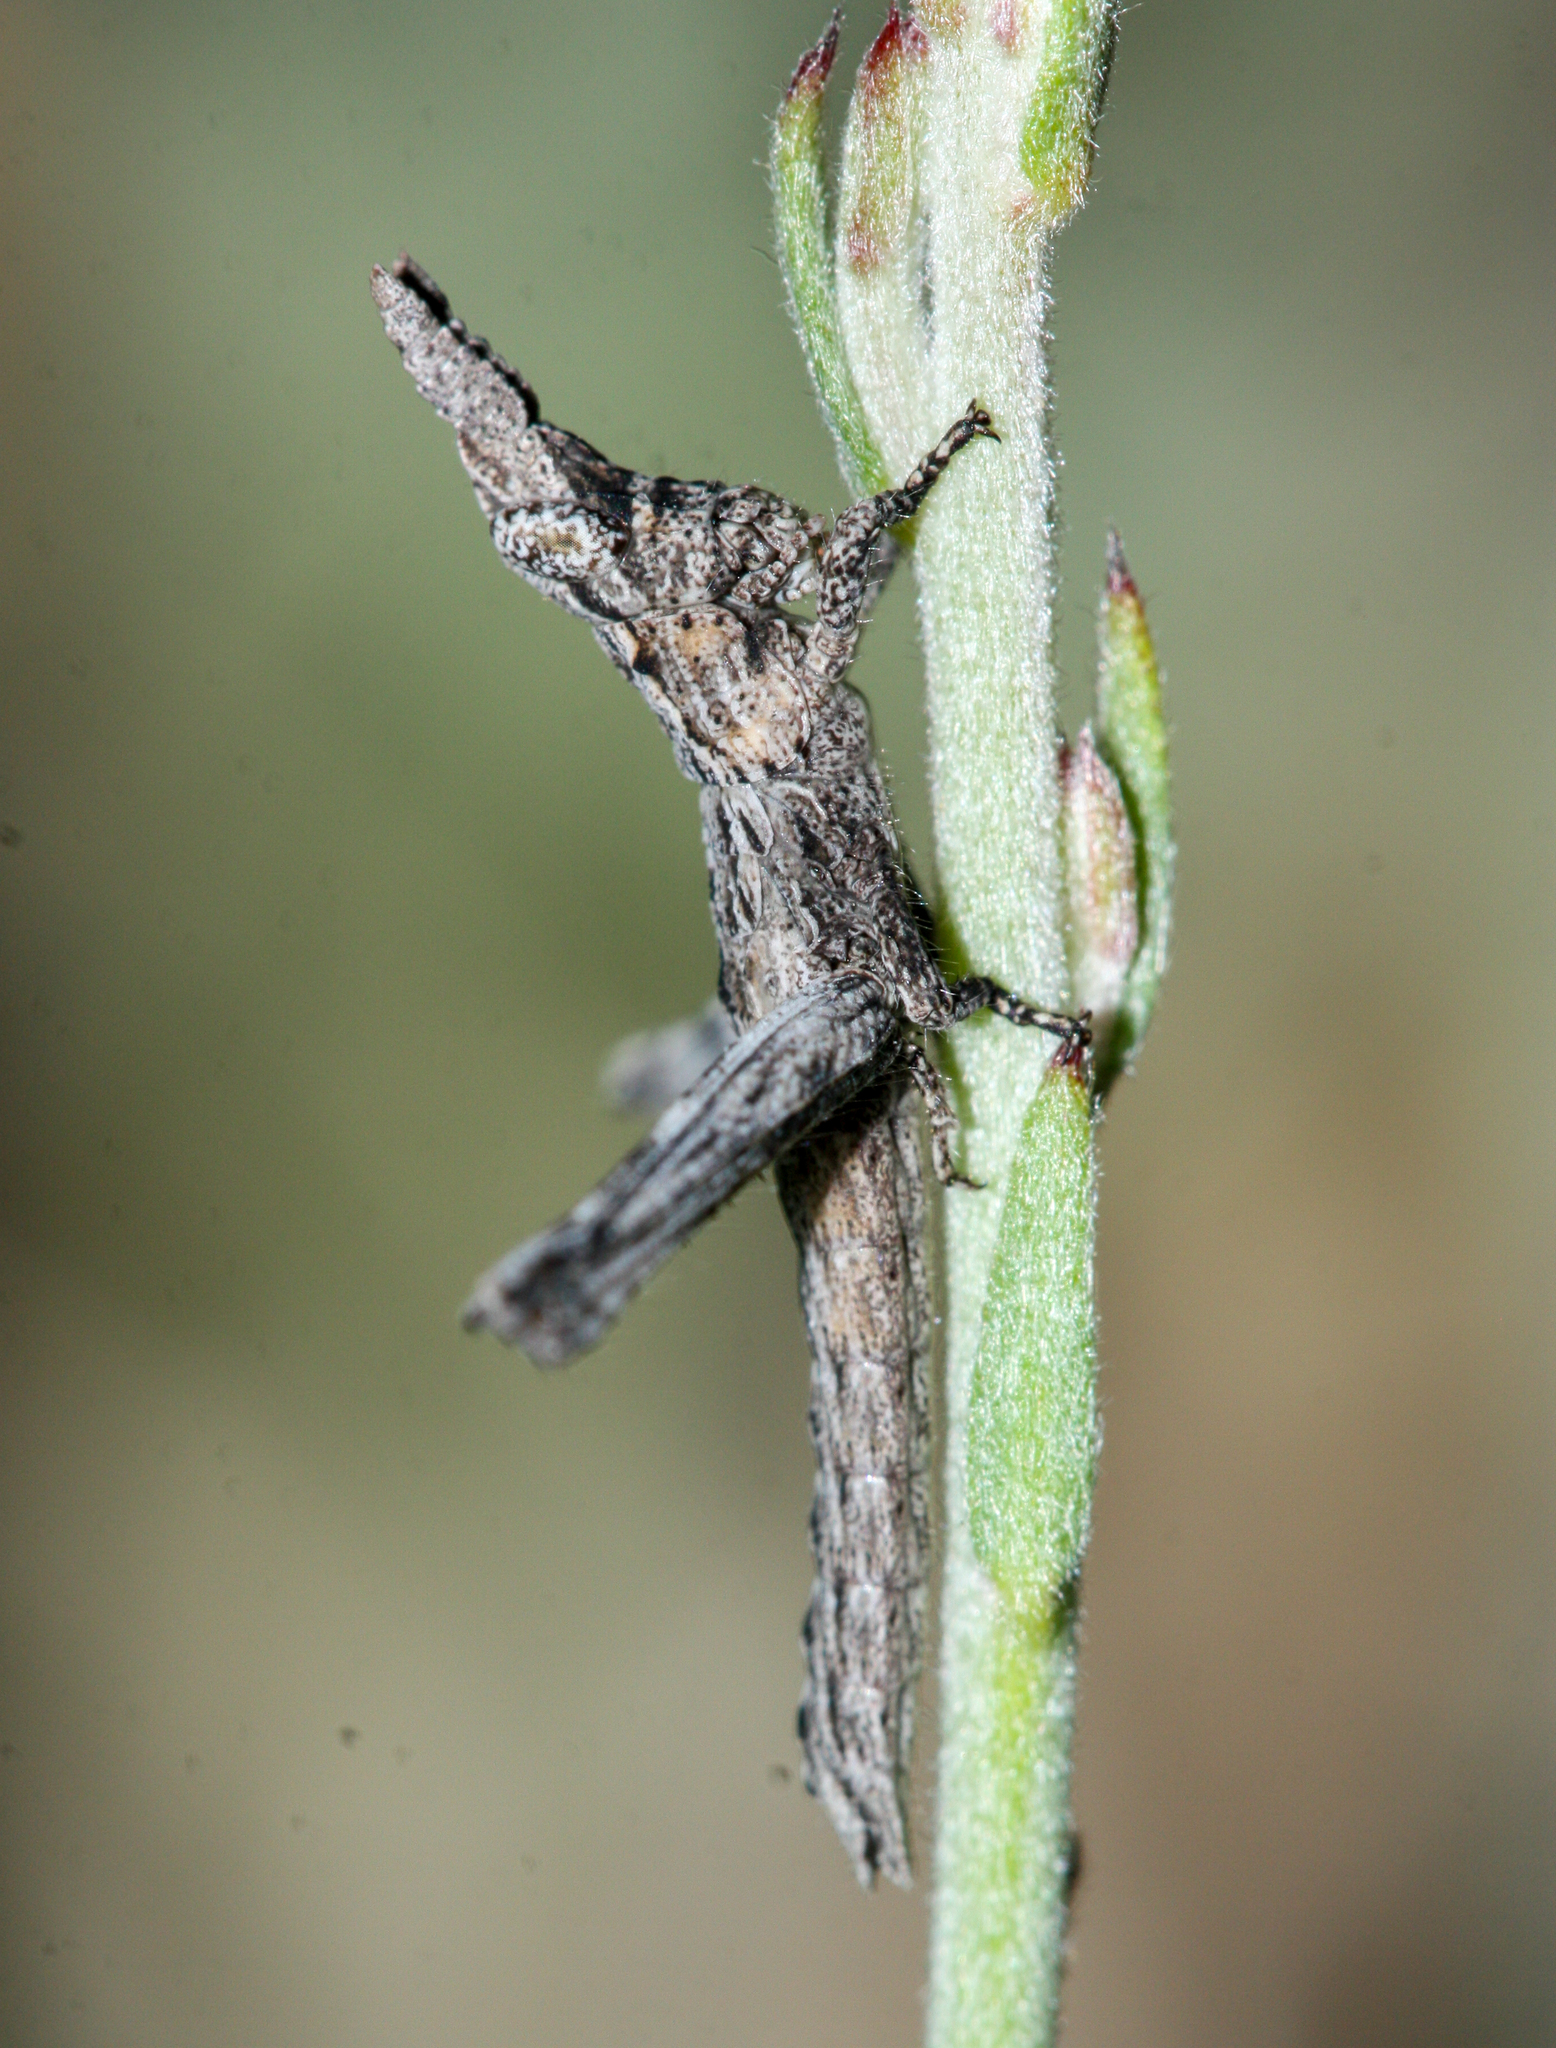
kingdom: Animalia
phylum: Arthropoda
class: Insecta
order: Orthoptera
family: Acrididae
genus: Clematodes
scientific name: Clematodes vanduzeei
